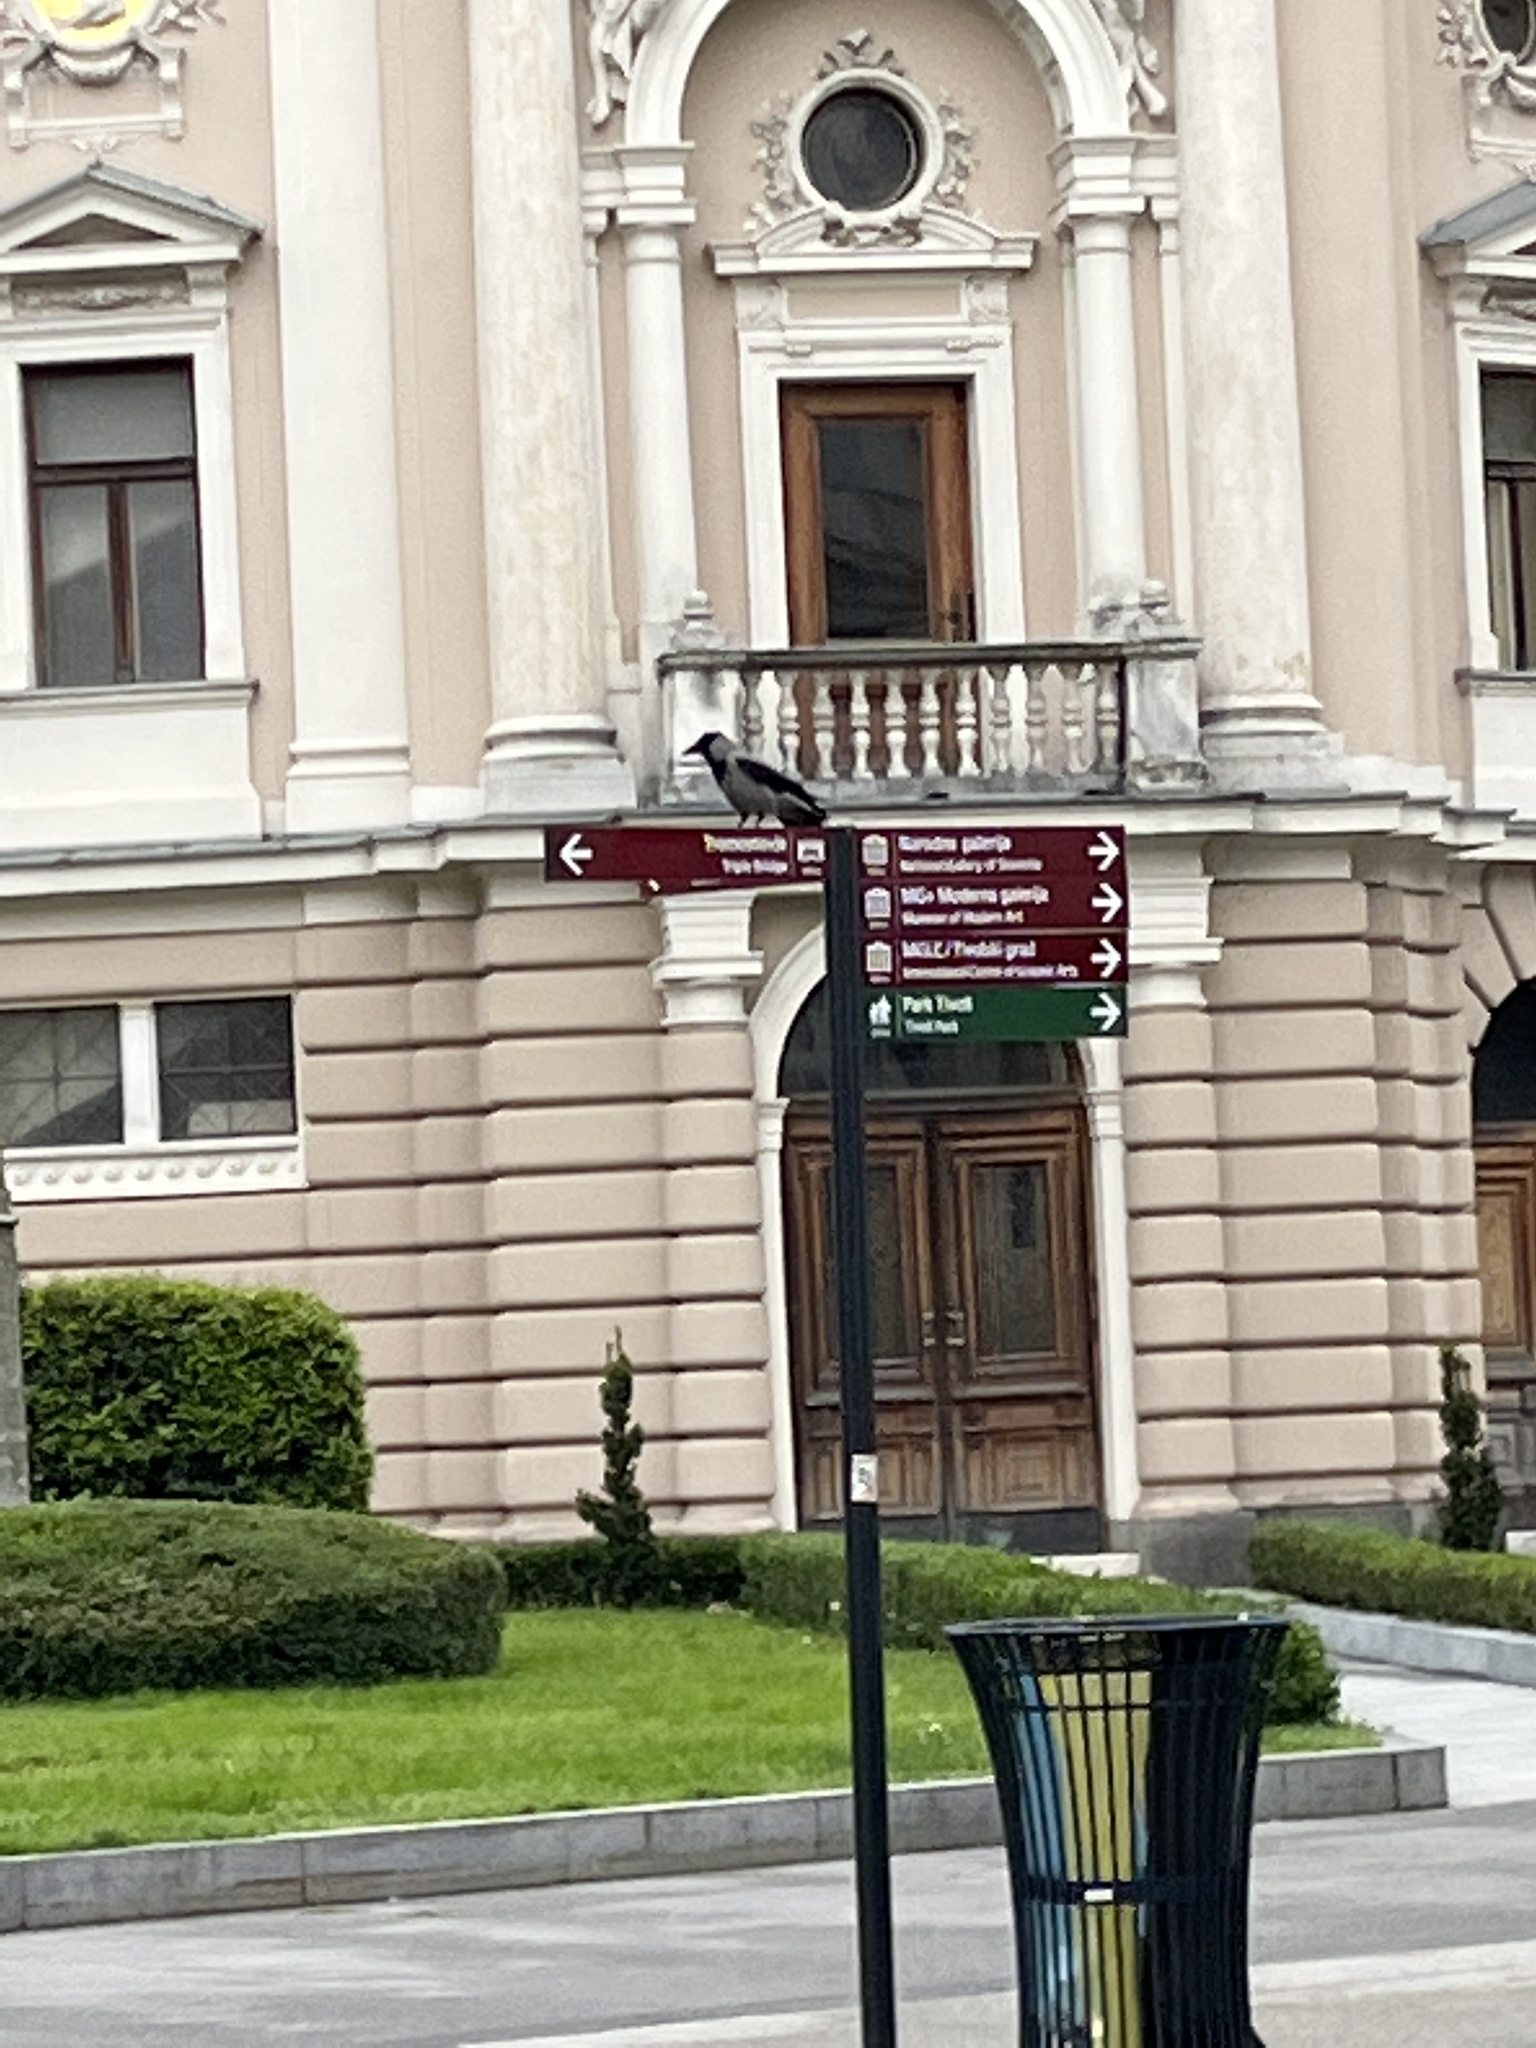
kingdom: Animalia
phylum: Chordata
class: Aves
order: Passeriformes
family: Corvidae
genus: Corvus
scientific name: Corvus cornix
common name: Hooded crow
